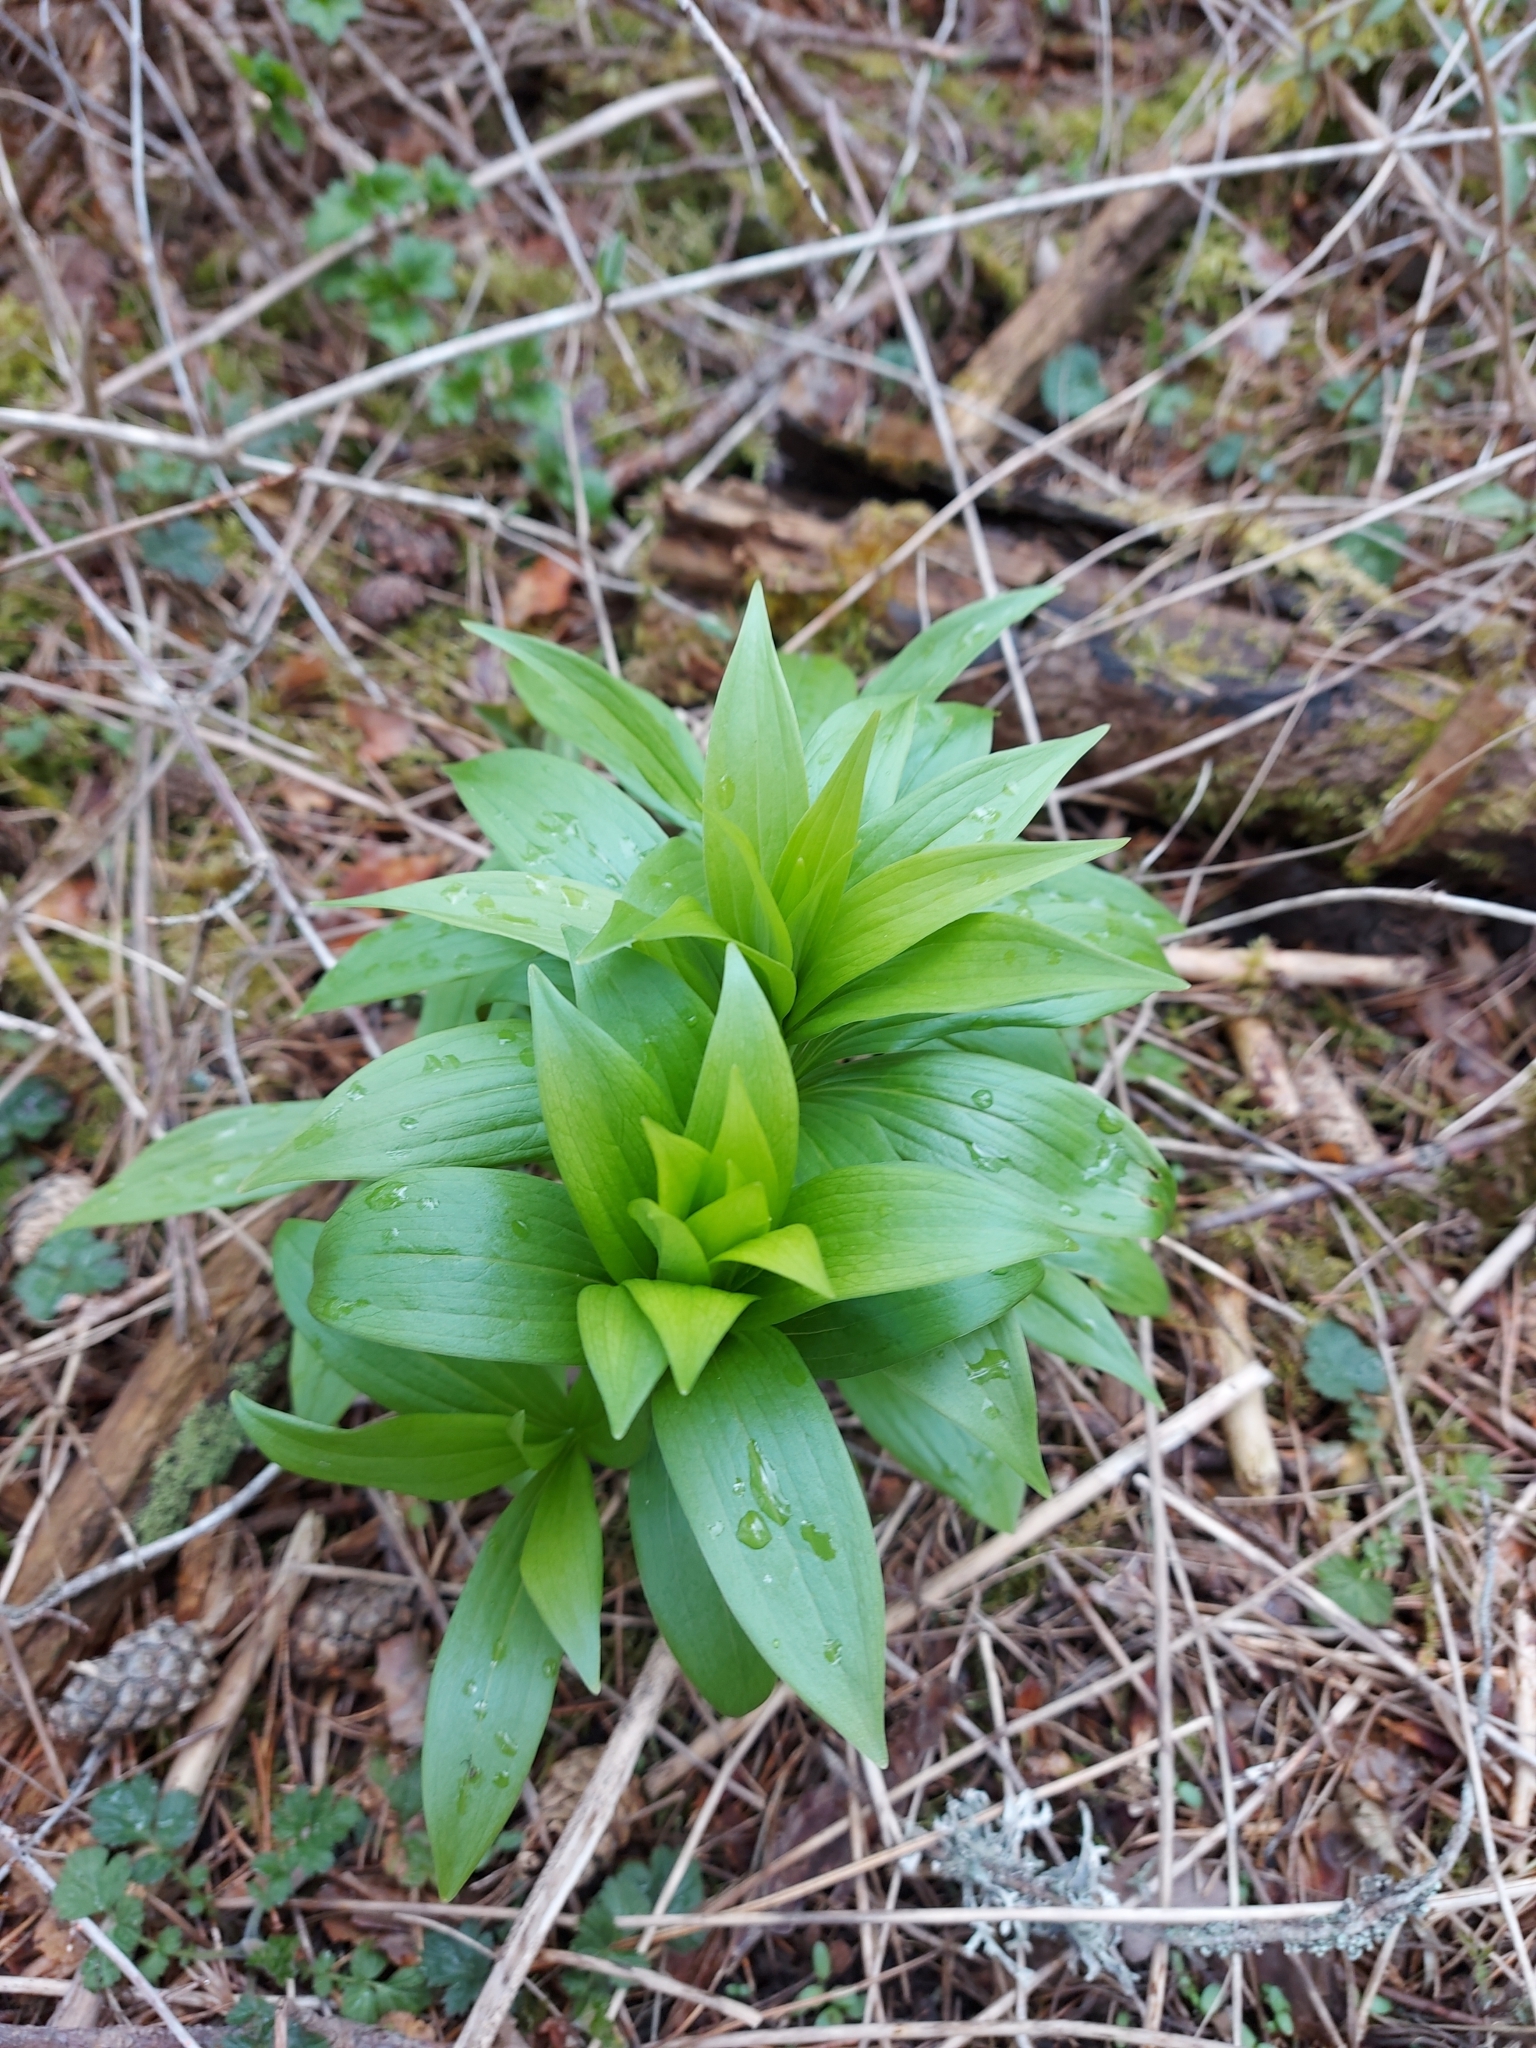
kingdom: Plantae
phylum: Tracheophyta
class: Liliopsida
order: Liliales
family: Liliaceae
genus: Lilium
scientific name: Lilium martagon
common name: Martagon lily
